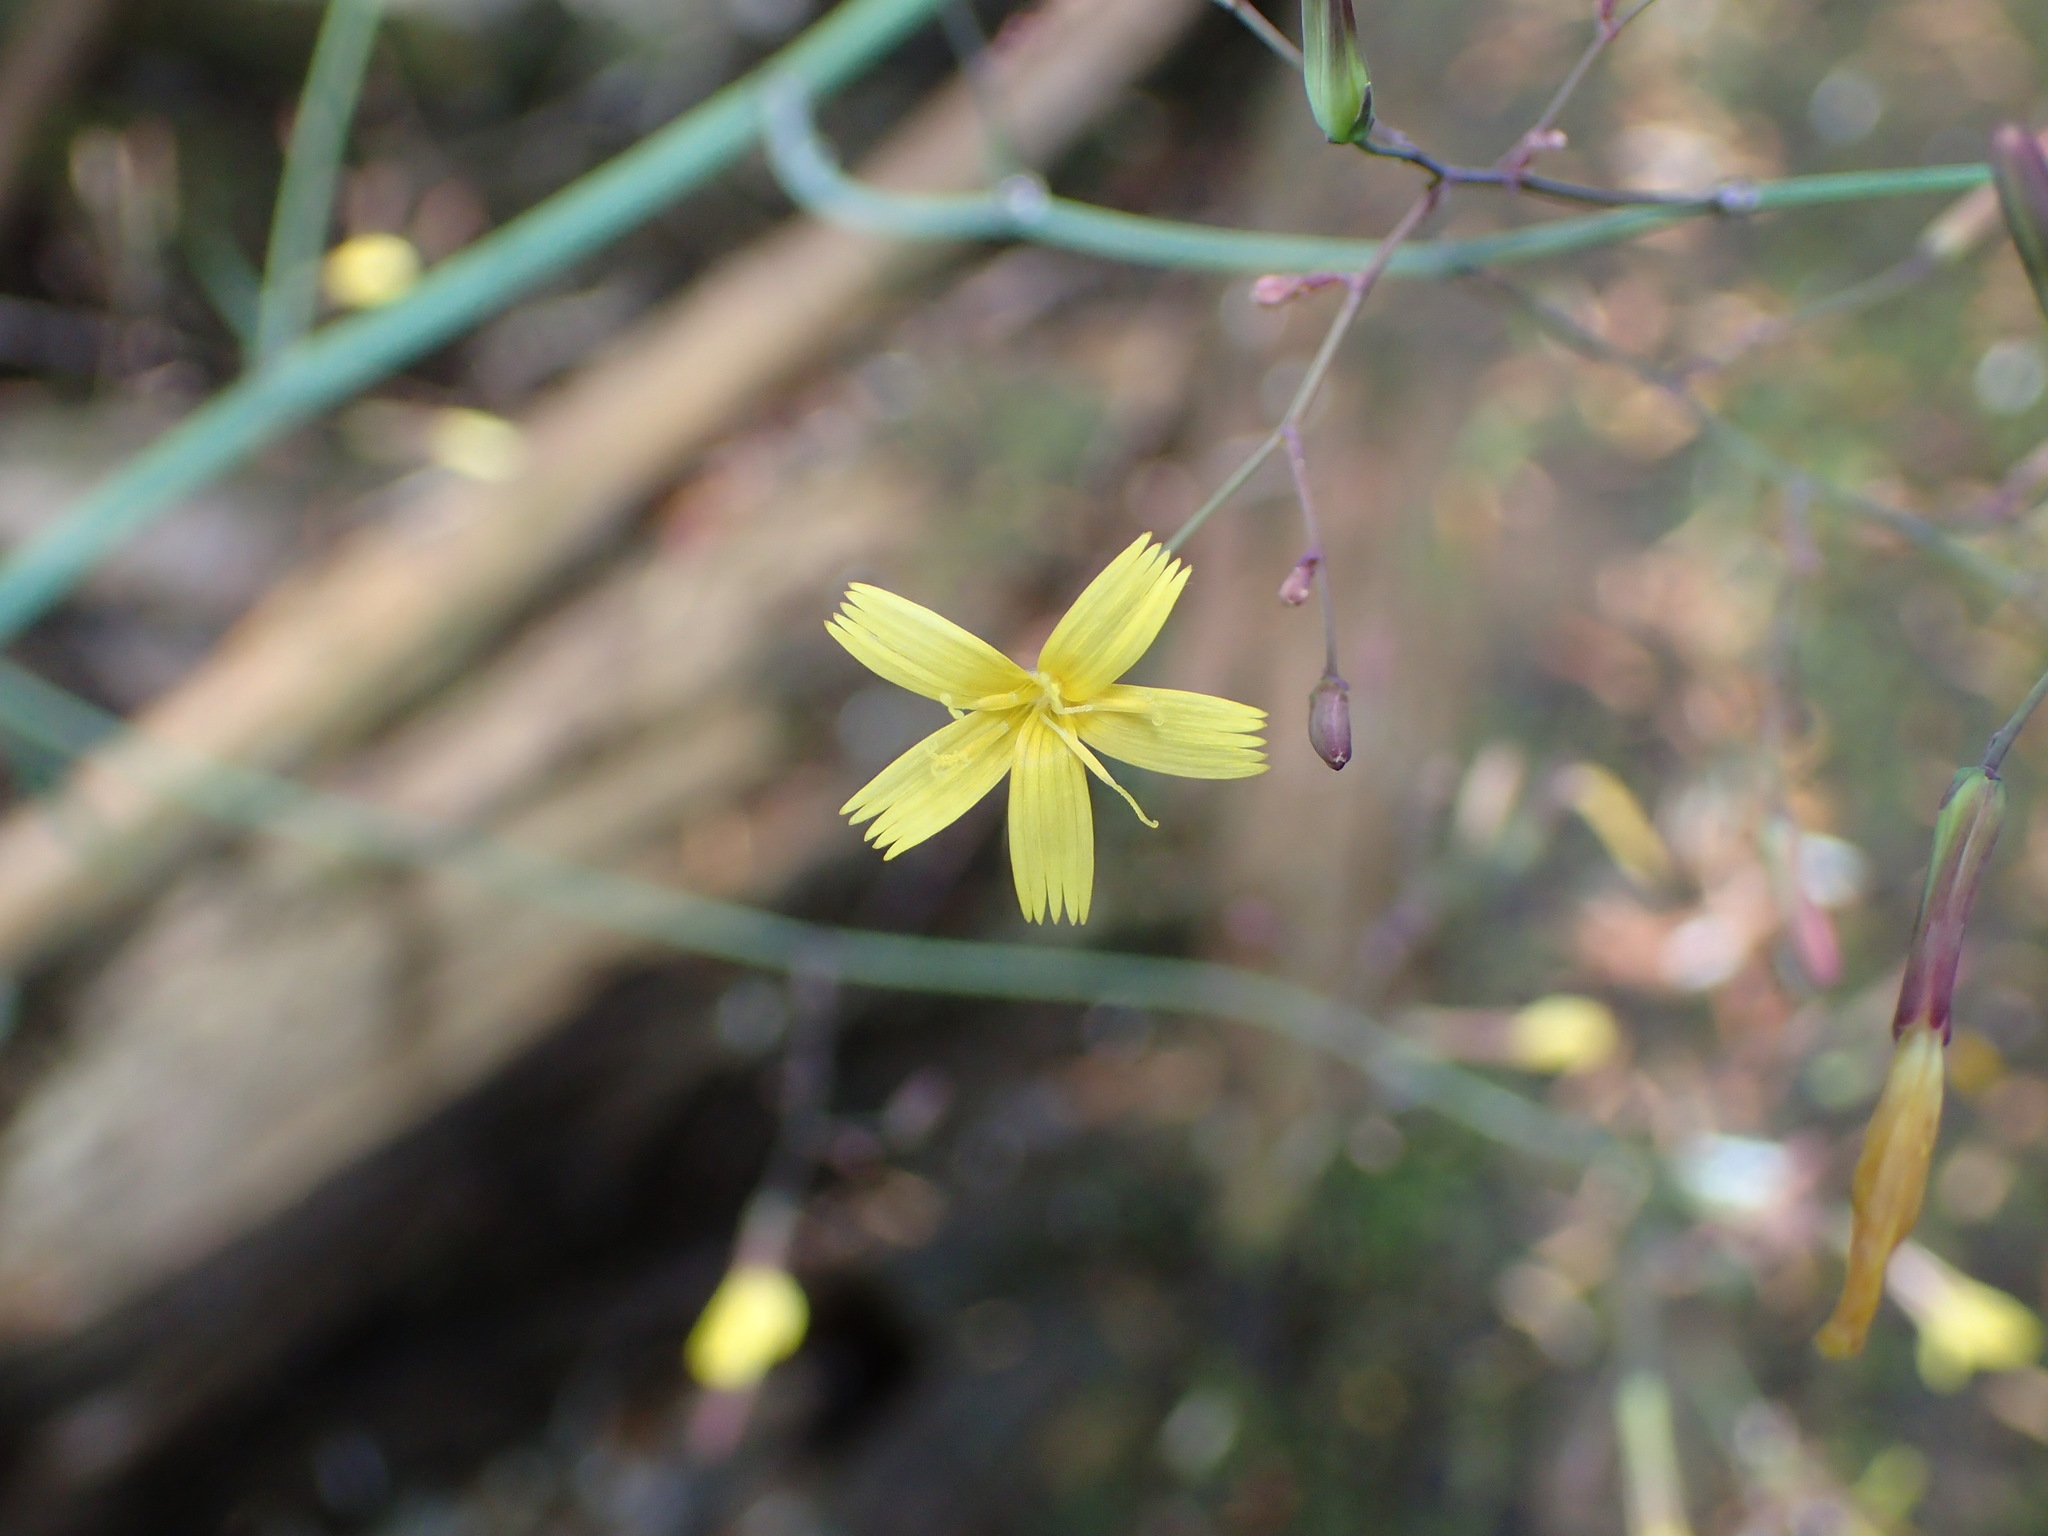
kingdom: Plantae
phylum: Tracheophyta
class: Magnoliopsida
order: Asterales
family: Asteraceae
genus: Mycelis
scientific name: Mycelis muralis
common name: Wall lettuce
